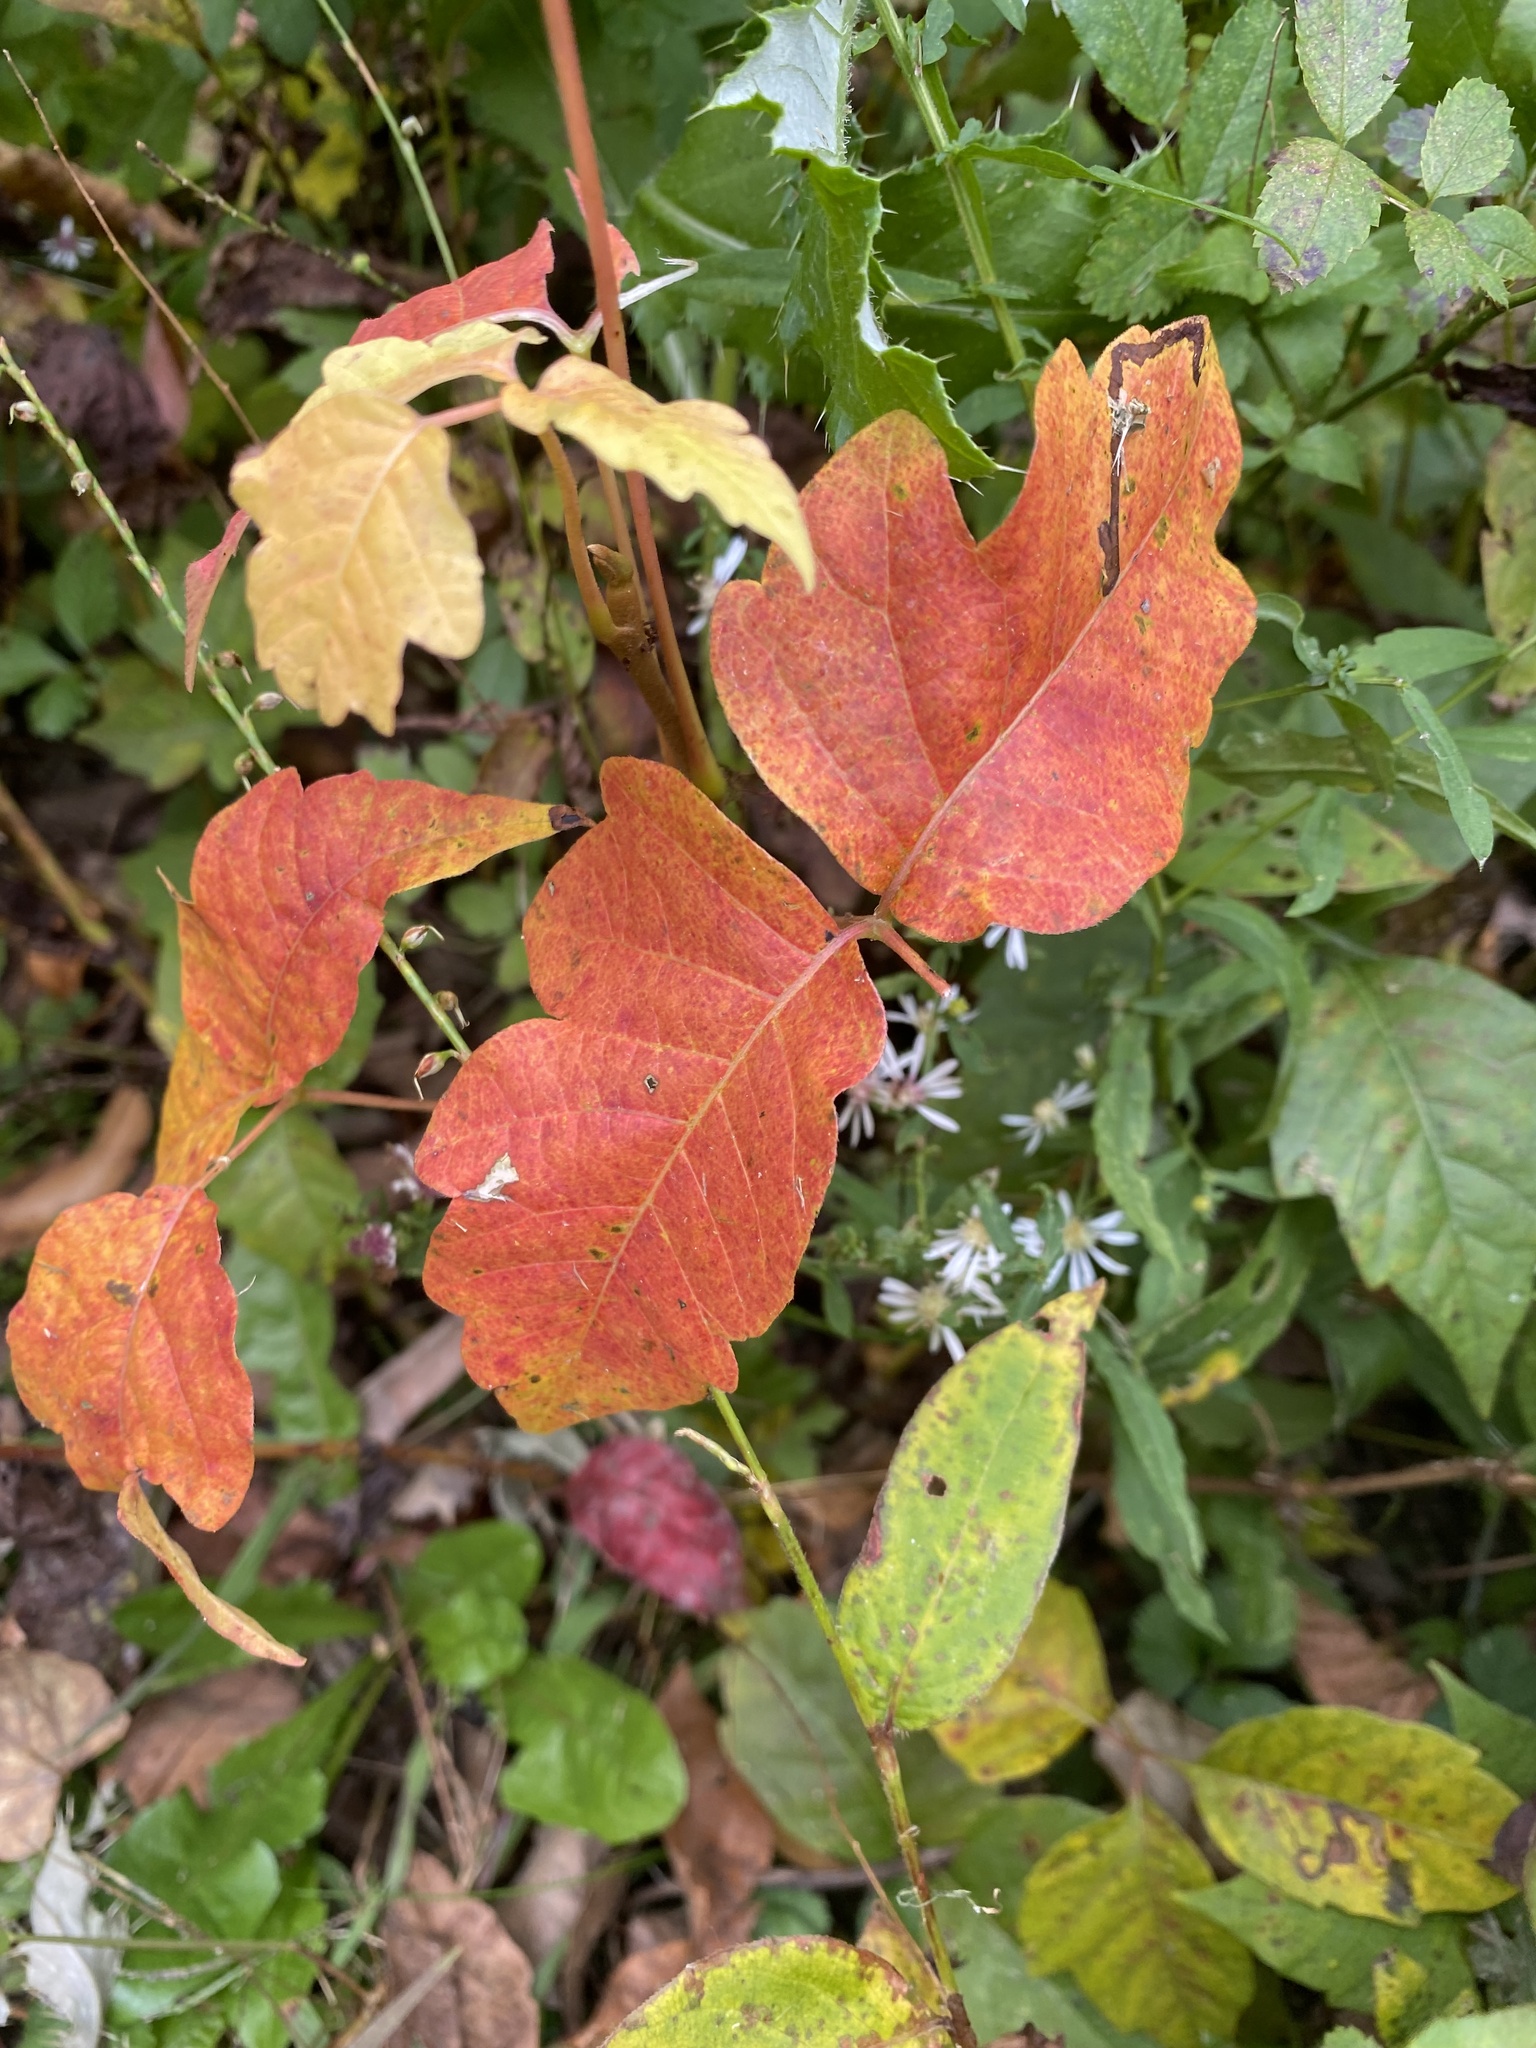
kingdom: Plantae
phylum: Tracheophyta
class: Magnoliopsida
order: Sapindales
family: Anacardiaceae
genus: Toxicodendron
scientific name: Toxicodendron radicans
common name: Poison ivy
